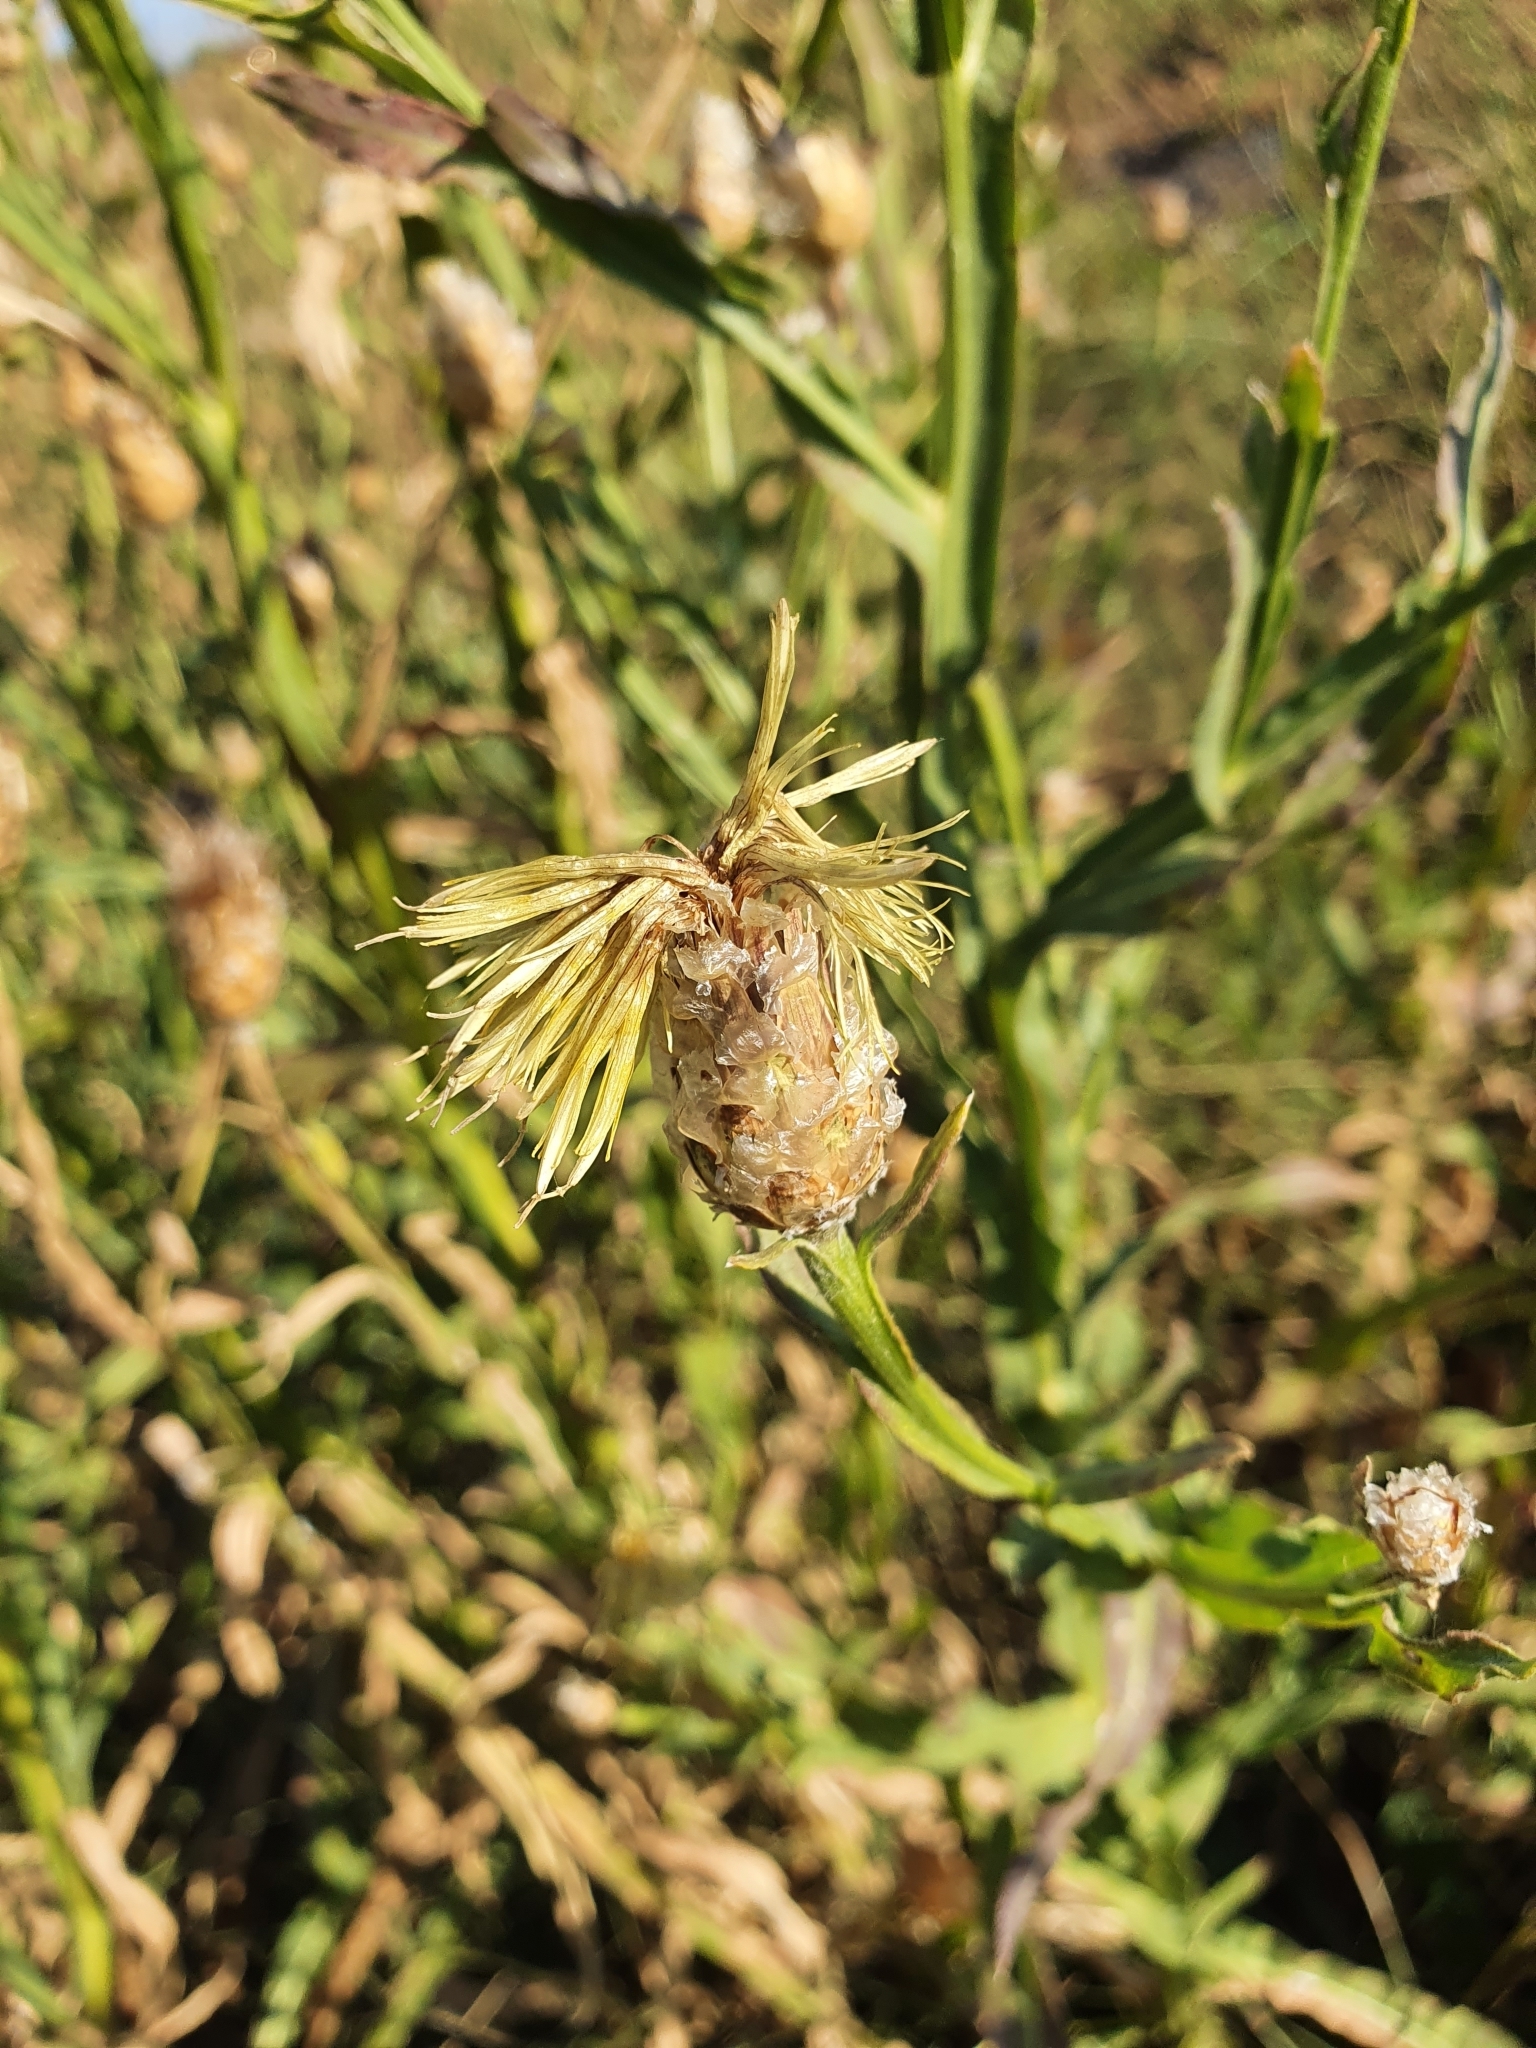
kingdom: Plantae
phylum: Tracheophyta
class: Magnoliopsida
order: Asterales
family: Asteraceae
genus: Centaurea
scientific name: Centaurea glastifolia
